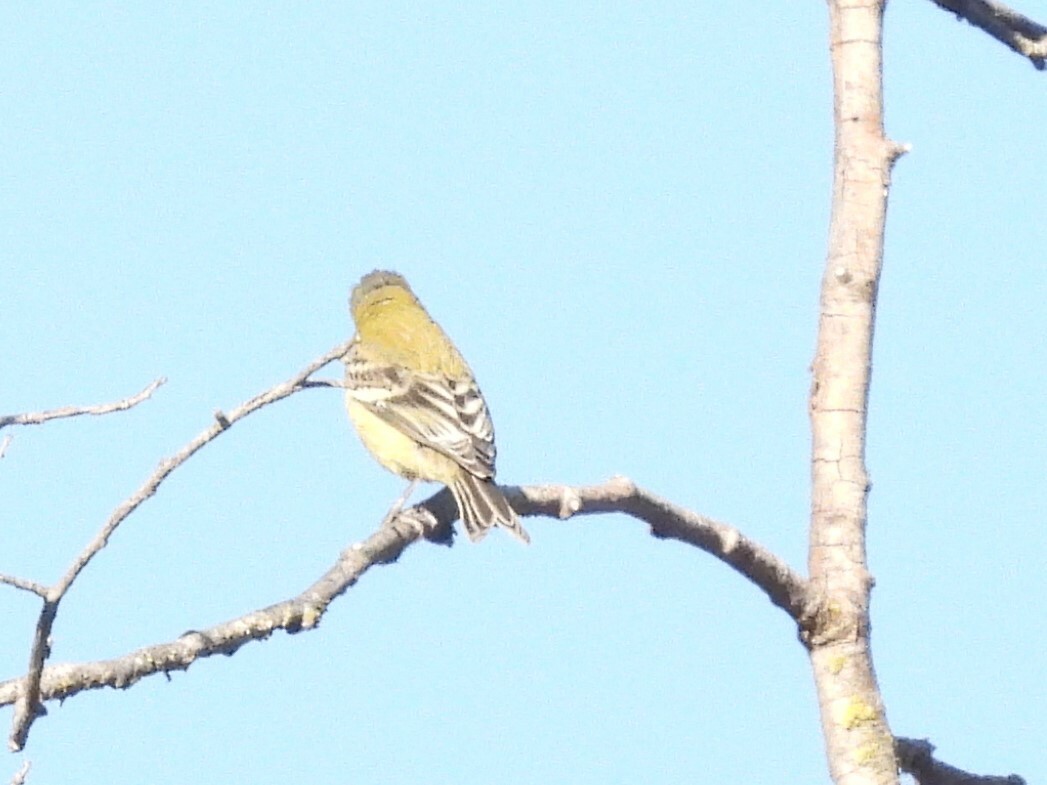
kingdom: Animalia
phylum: Chordata
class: Aves
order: Passeriformes
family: Fringillidae
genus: Spinus
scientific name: Spinus psaltria
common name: Lesser goldfinch
